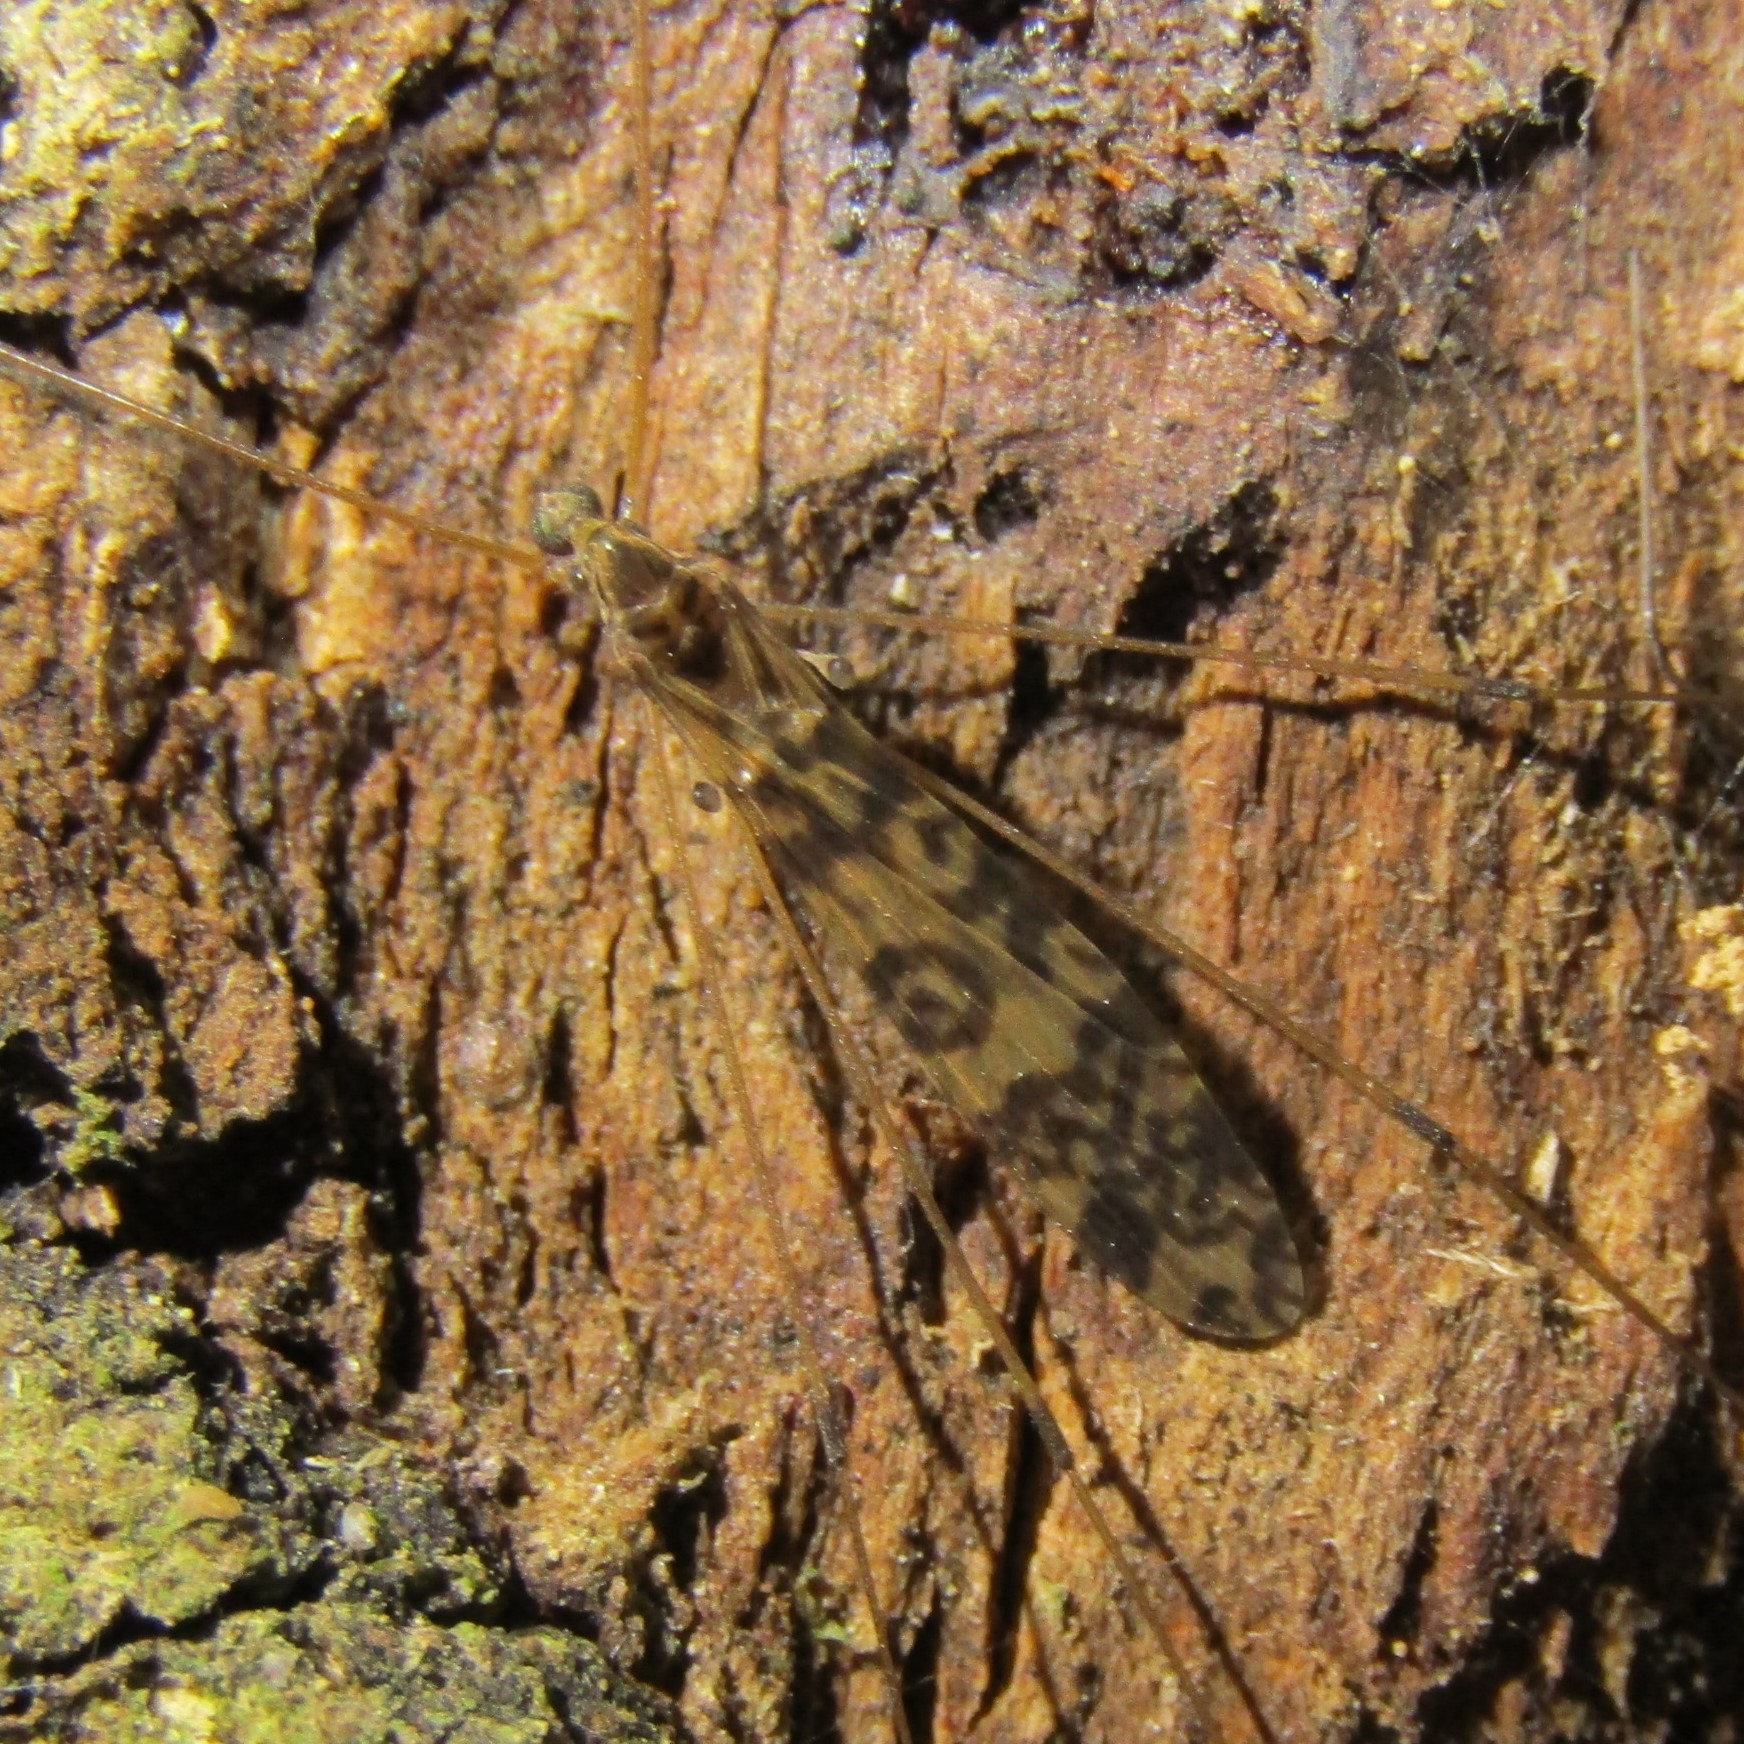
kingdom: Animalia
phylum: Arthropoda
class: Insecta
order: Diptera
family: Limoniidae
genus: Discobola
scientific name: Discobola gibberina
